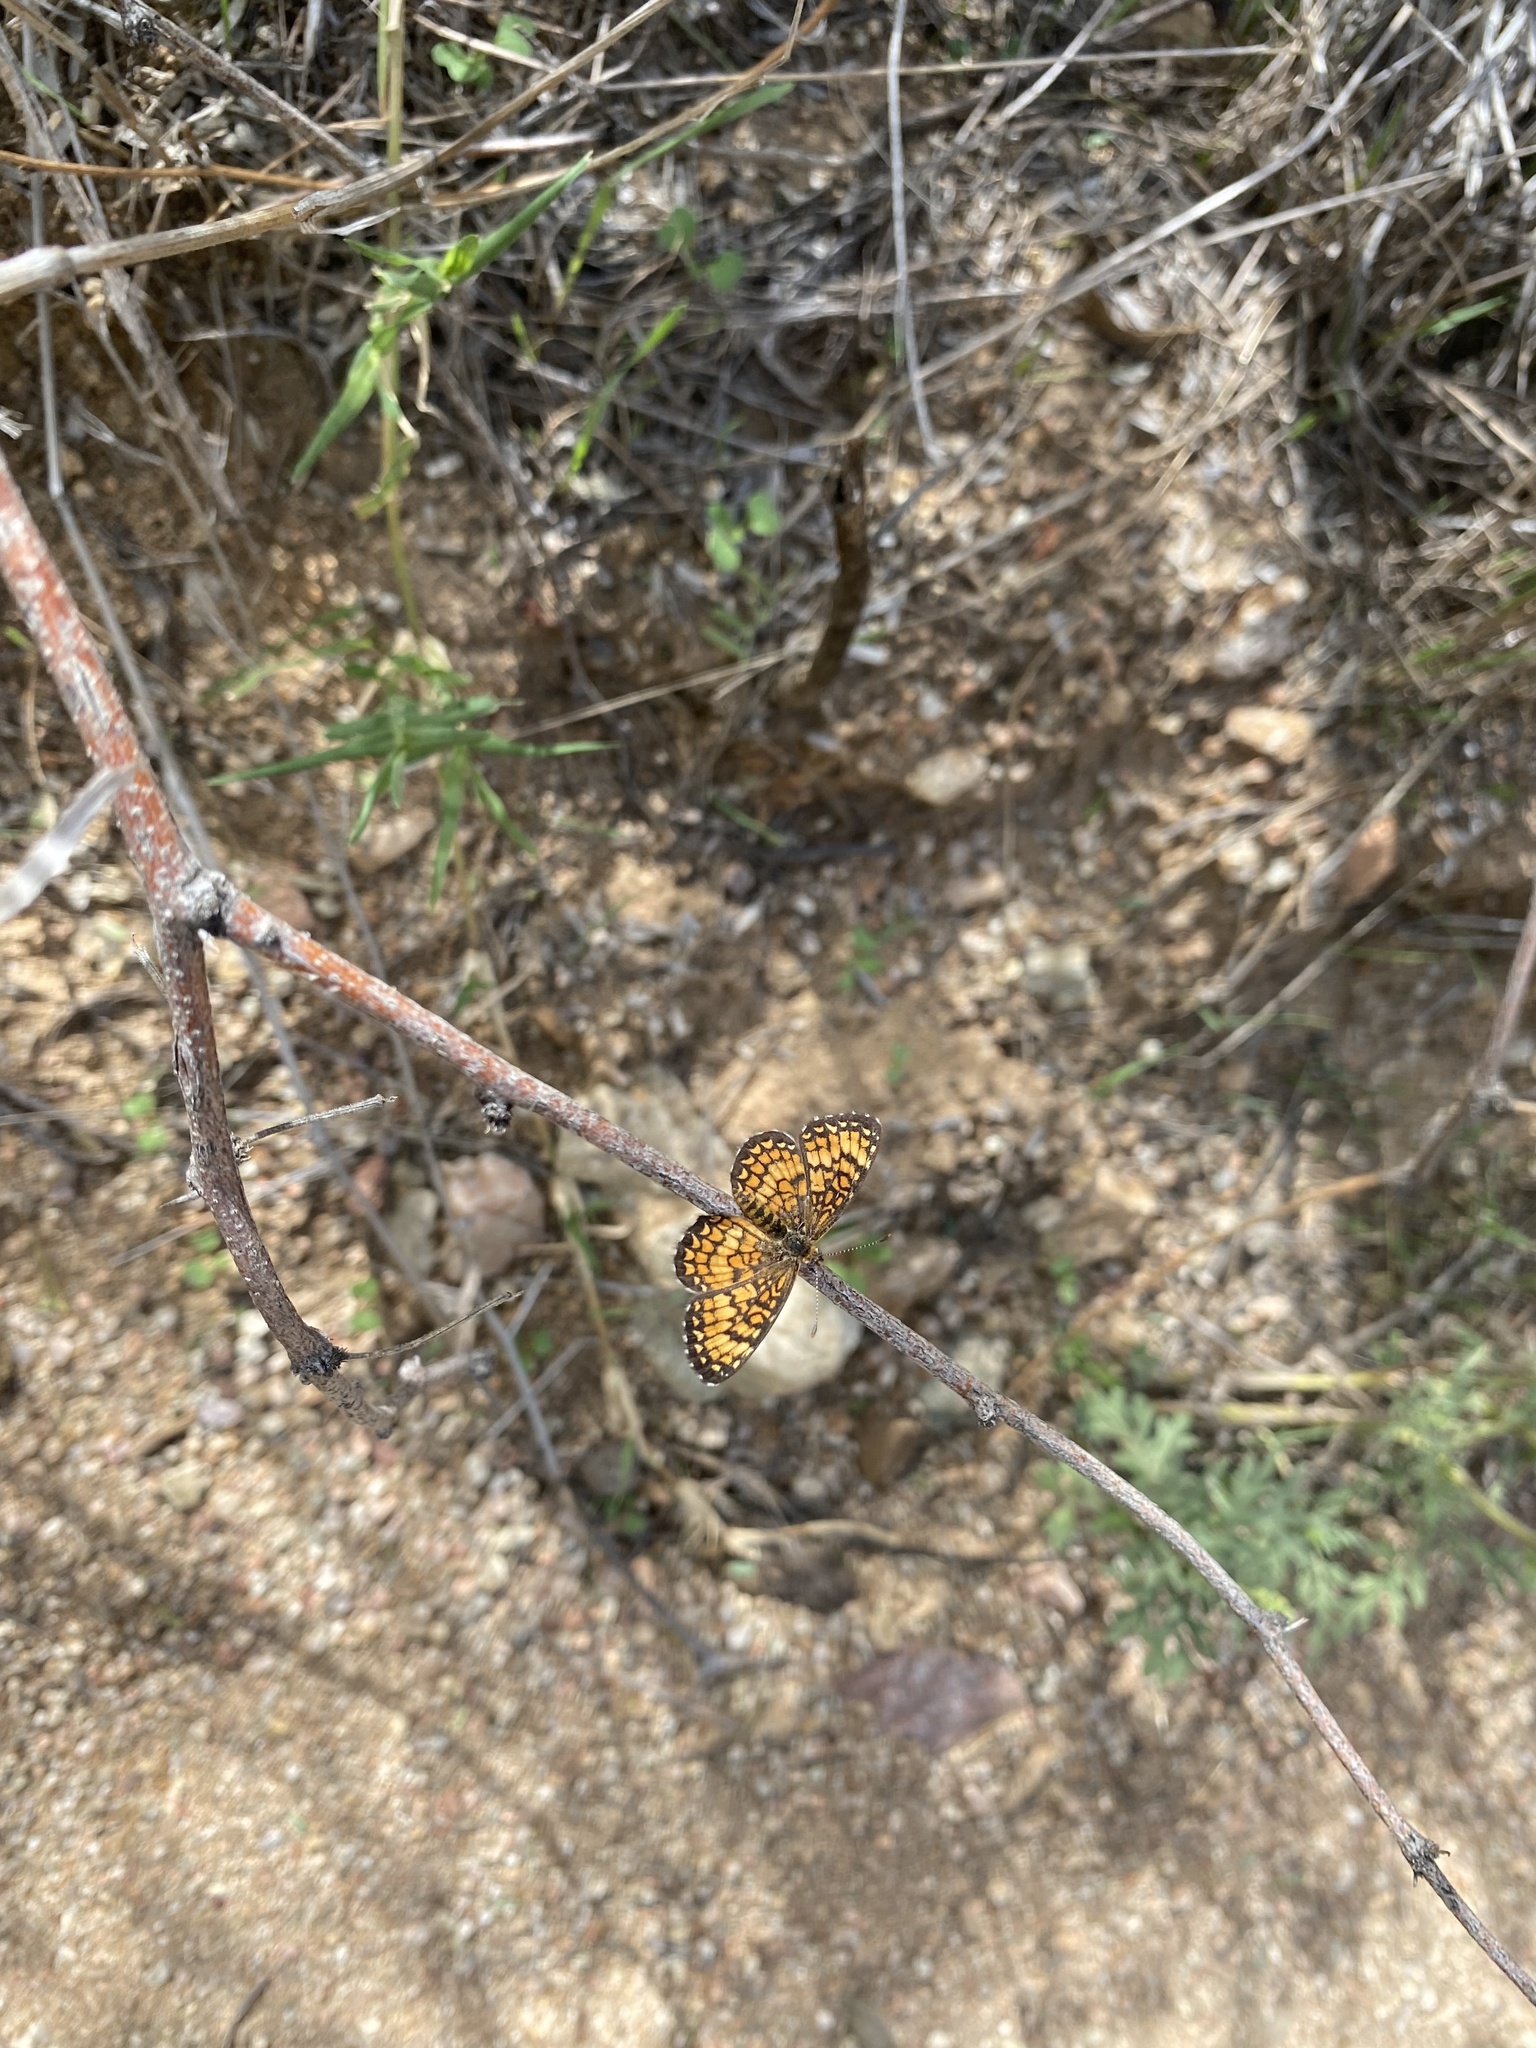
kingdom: Animalia
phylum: Arthropoda
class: Insecta
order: Lepidoptera
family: Nymphalidae
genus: Texola
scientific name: Texola
